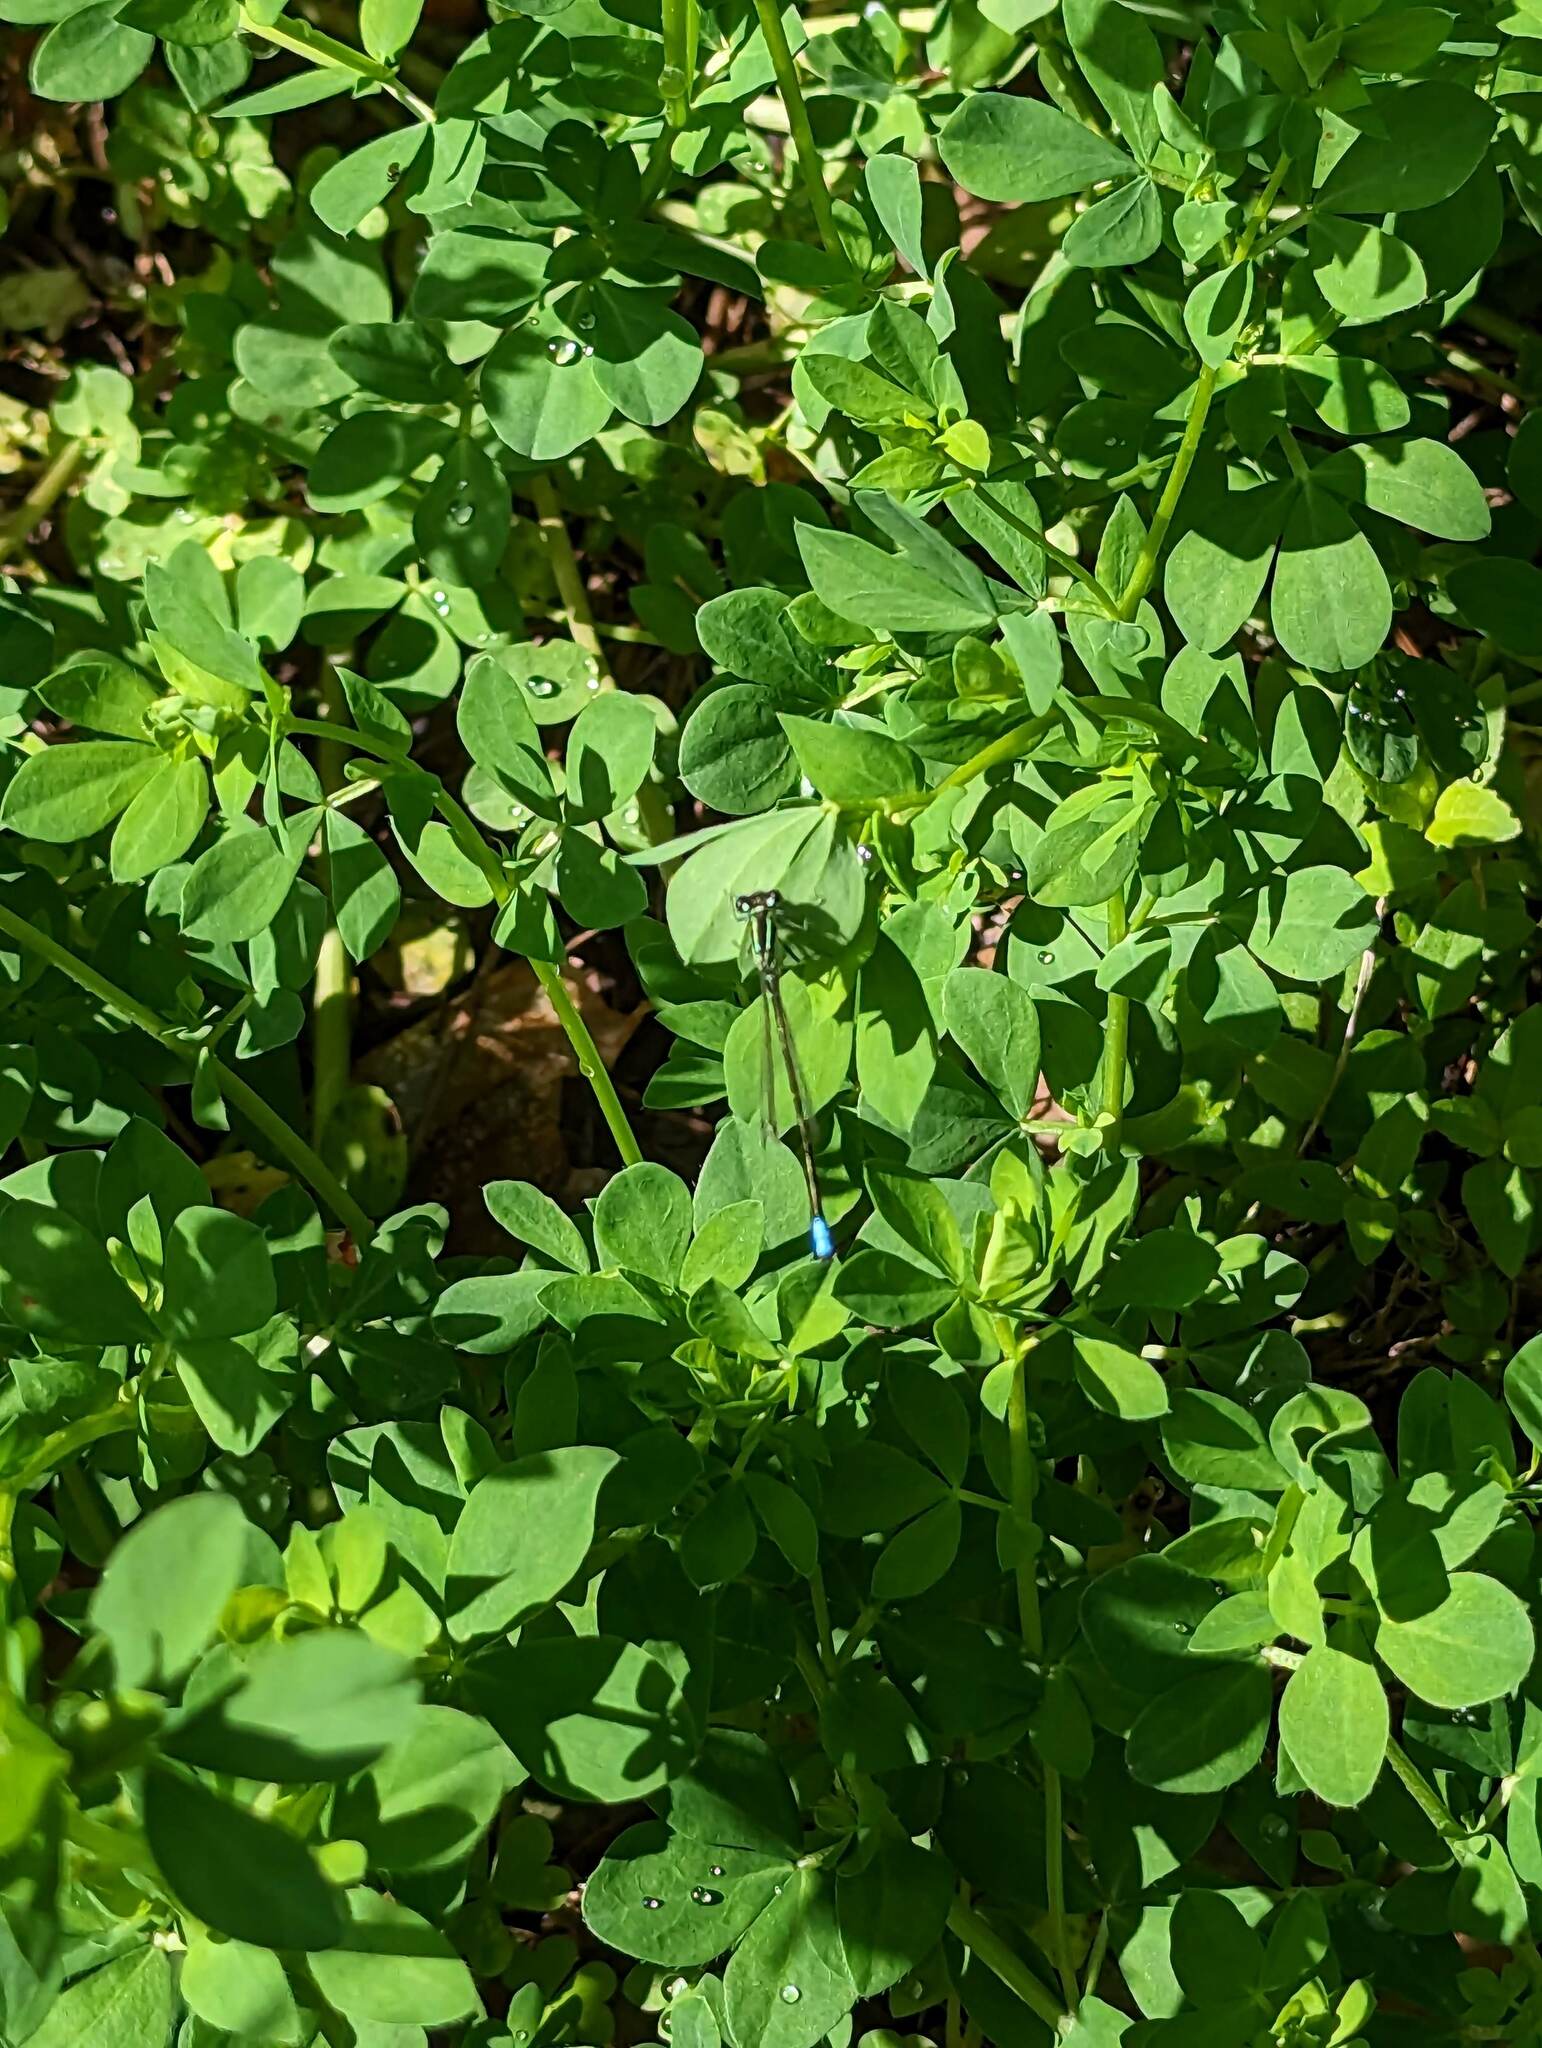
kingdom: Animalia
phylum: Arthropoda
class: Insecta
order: Odonata
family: Coenagrionidae
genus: Ischnura
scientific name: Ischnura verticalis
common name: Eastern forktail
